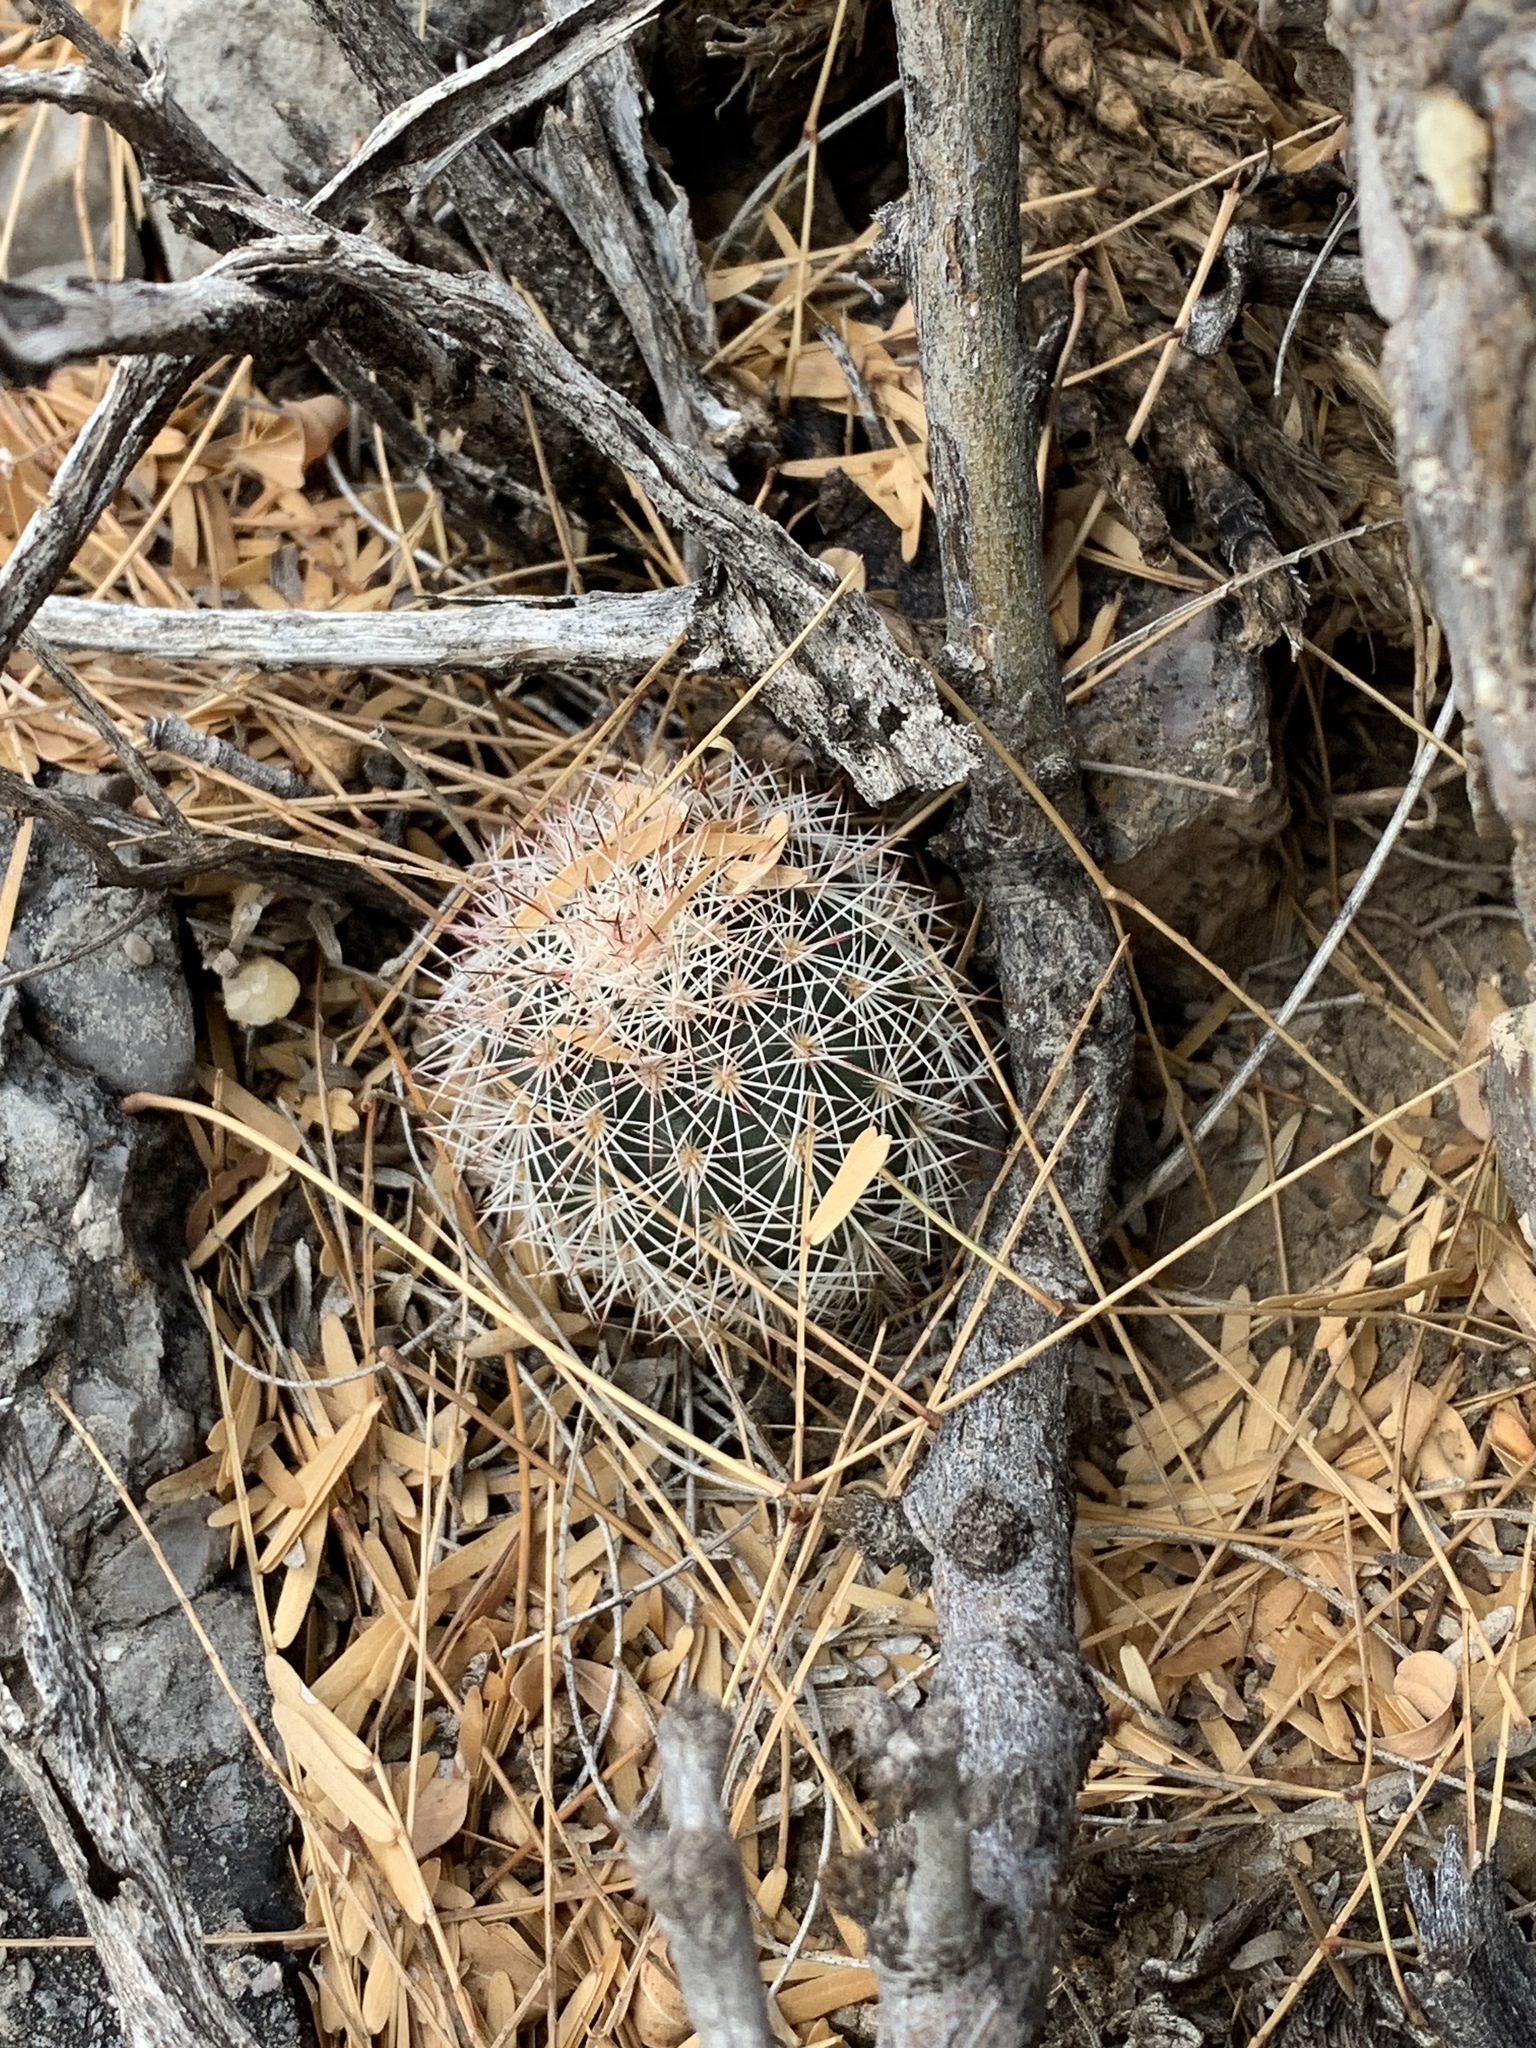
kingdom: Plantae
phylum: Tracheophyta
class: Magnoliopsida
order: Caryophyllales
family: Cactaceae
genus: Echinocereus
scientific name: Echinocereus dasyacanthus
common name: Spiny hedgehog cactus
